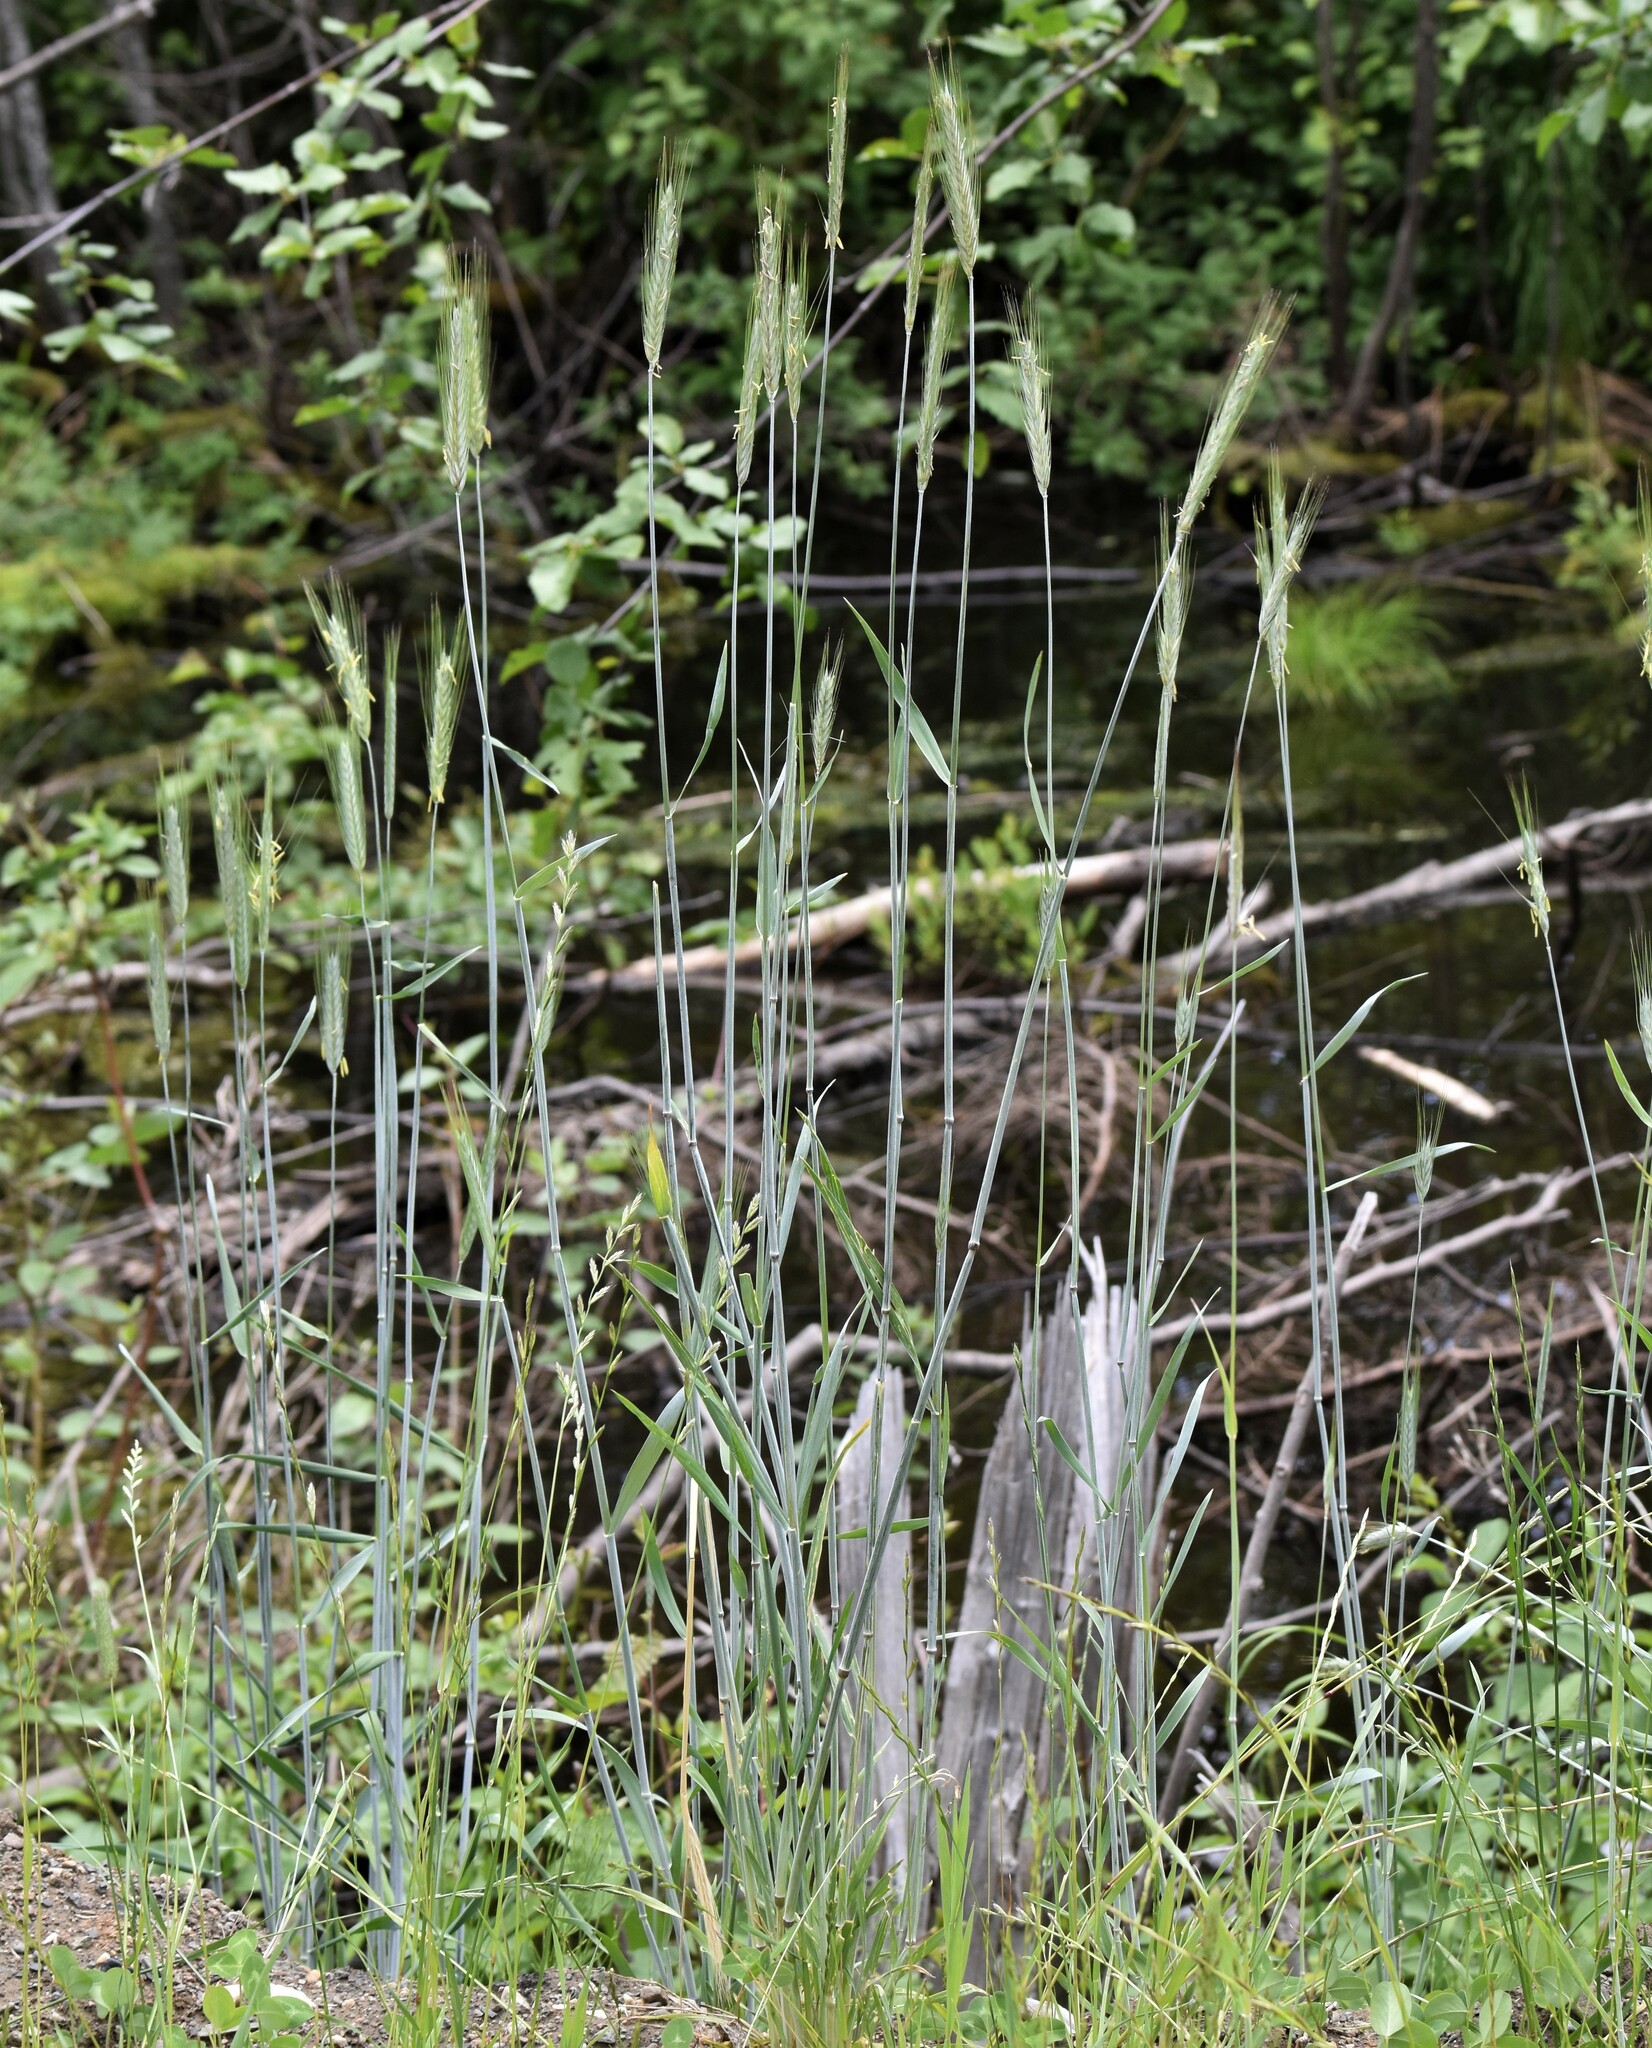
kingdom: Plantae
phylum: Tracheophyta
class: Liliopsida
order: Poales
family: Poaceae
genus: Hordeum
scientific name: Hordeum brachyantherum
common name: Meadow barley
